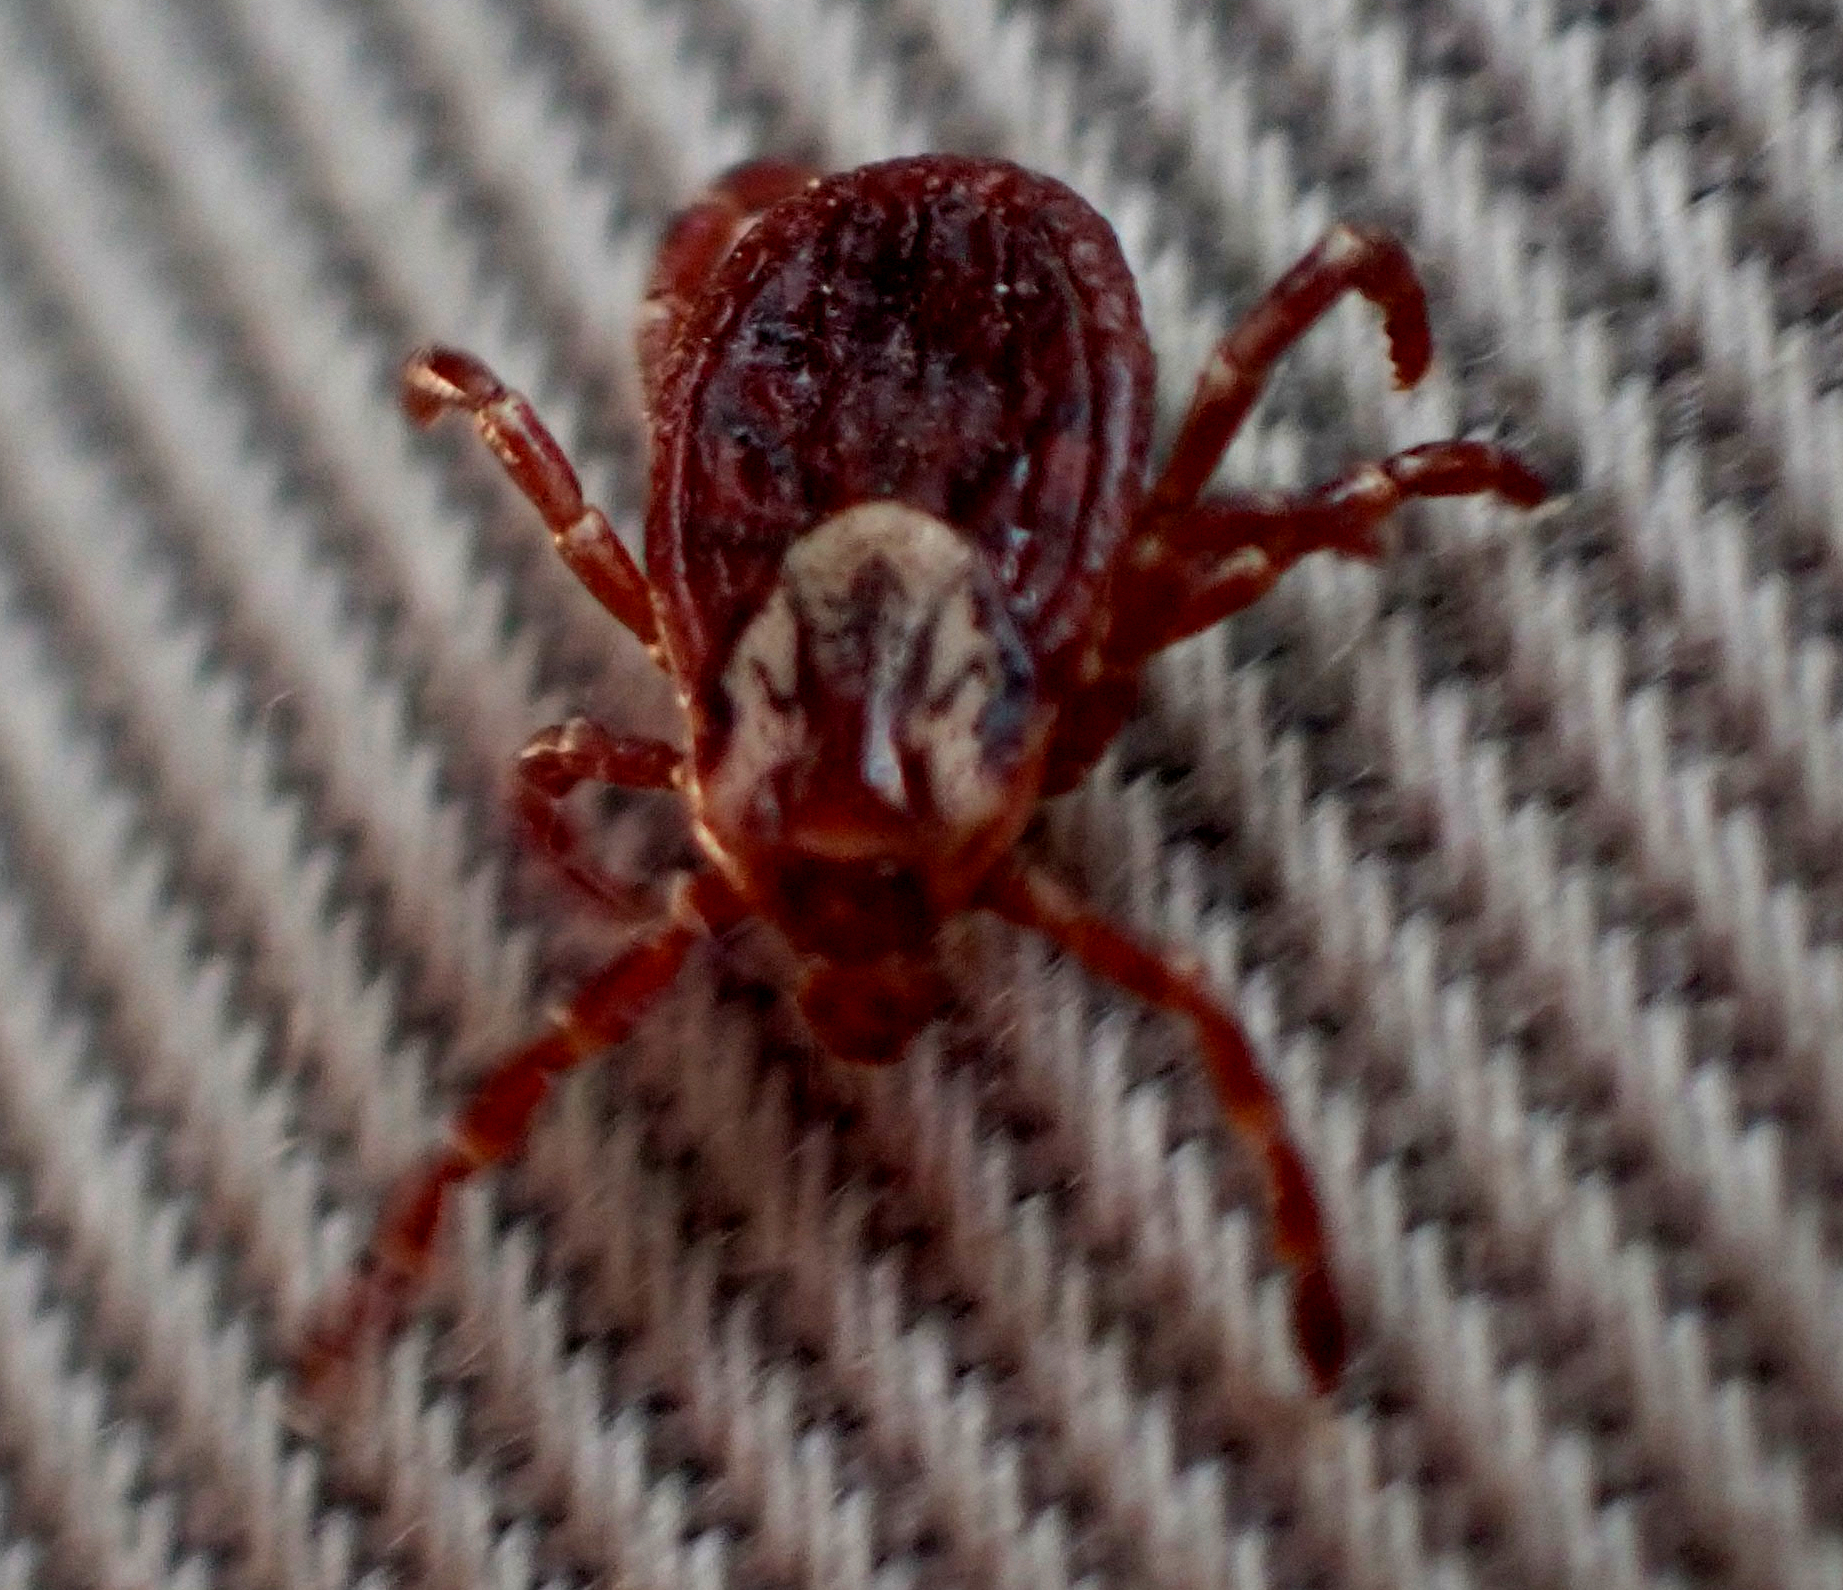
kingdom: Animalia
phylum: Arthropoda
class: Arachnida
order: Ixodida
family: Ixodidae
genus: Dermacentor
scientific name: Dermacentor variabilis
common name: American dog tick
